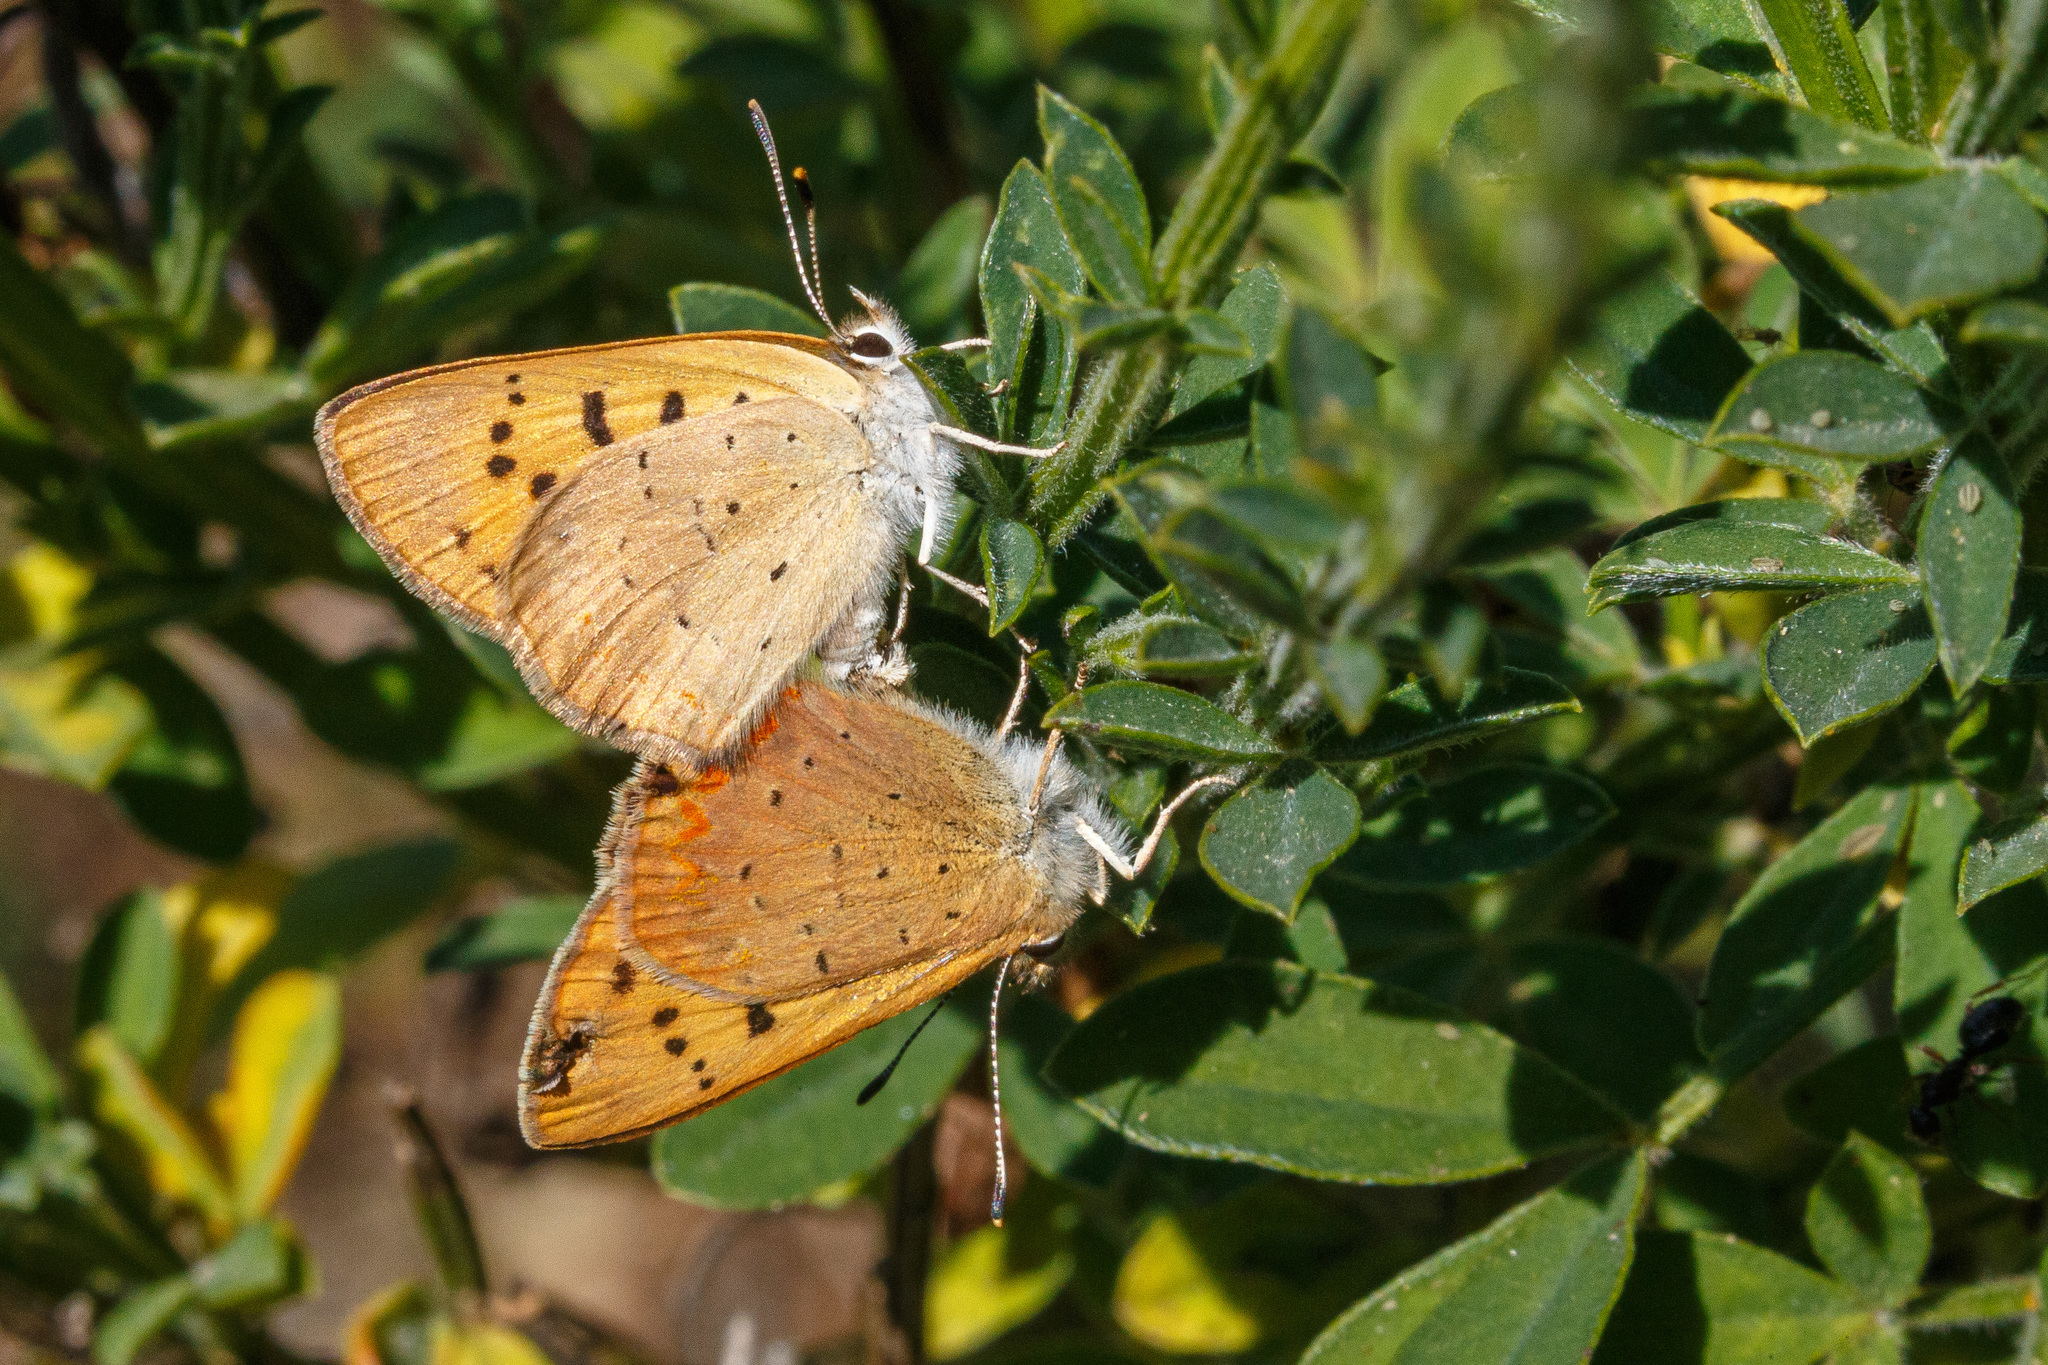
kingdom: Animalia
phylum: Arthropoda
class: Insecta
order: Lepidoptera
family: Lycaenidae
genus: Tharsalea
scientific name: Tharsalea helloides
